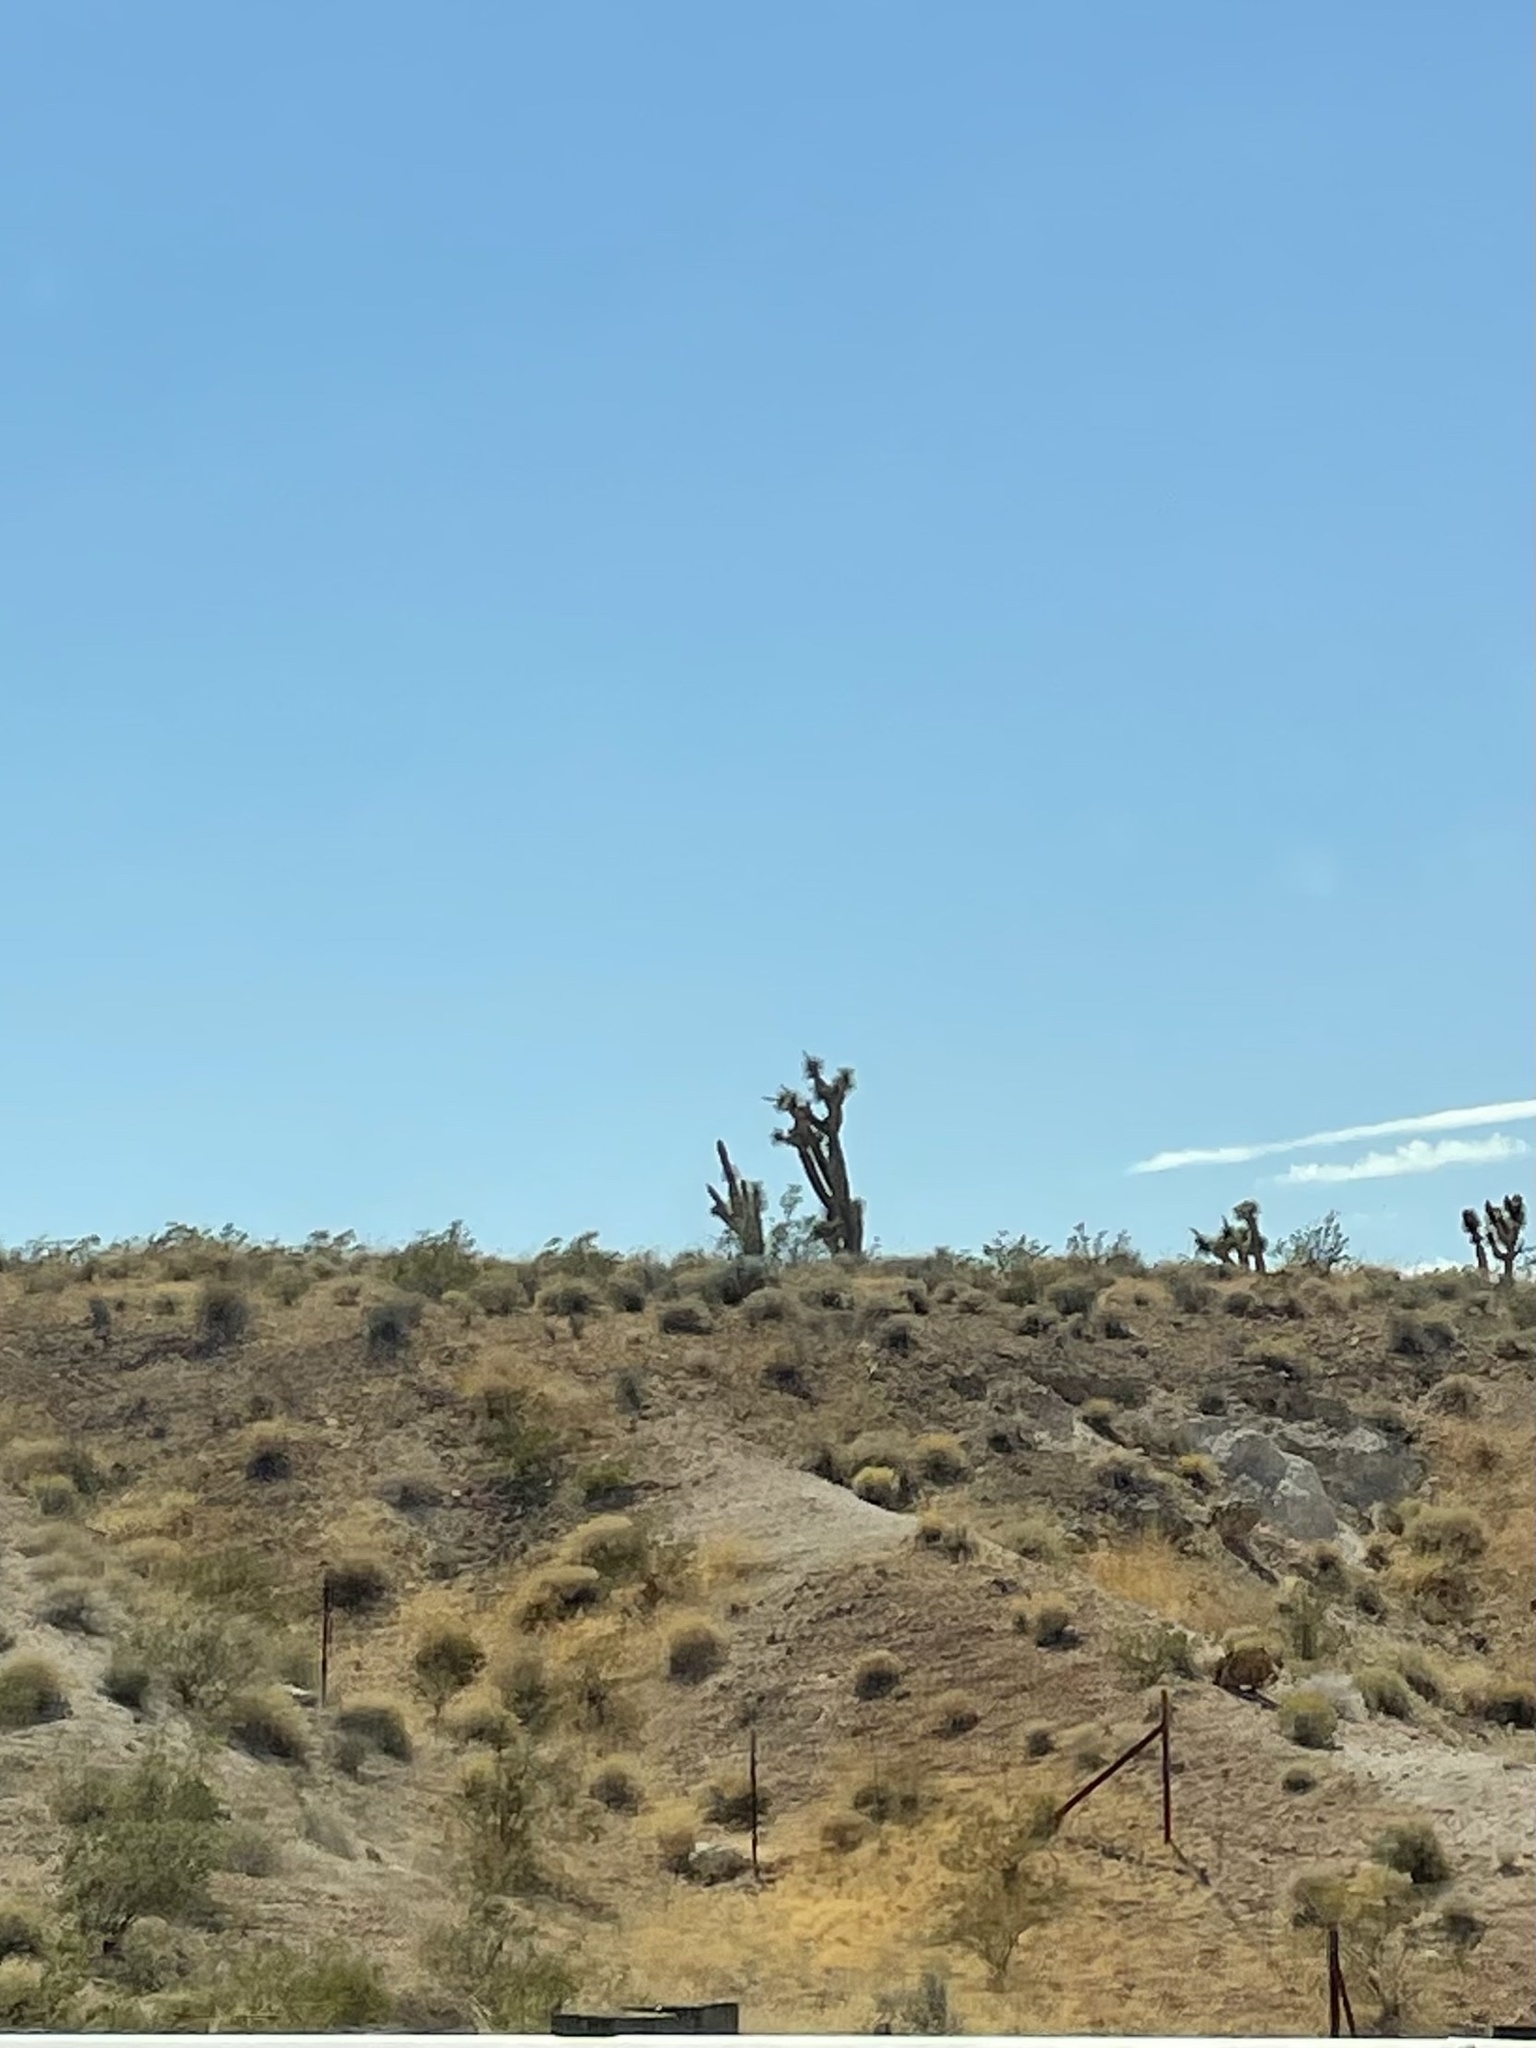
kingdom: Plantae
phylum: Tracheophyta
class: Liliopsida
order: Asparagales
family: Asparagaceae
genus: Yucca
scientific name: Yucca brevifolia
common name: Joshua tree
